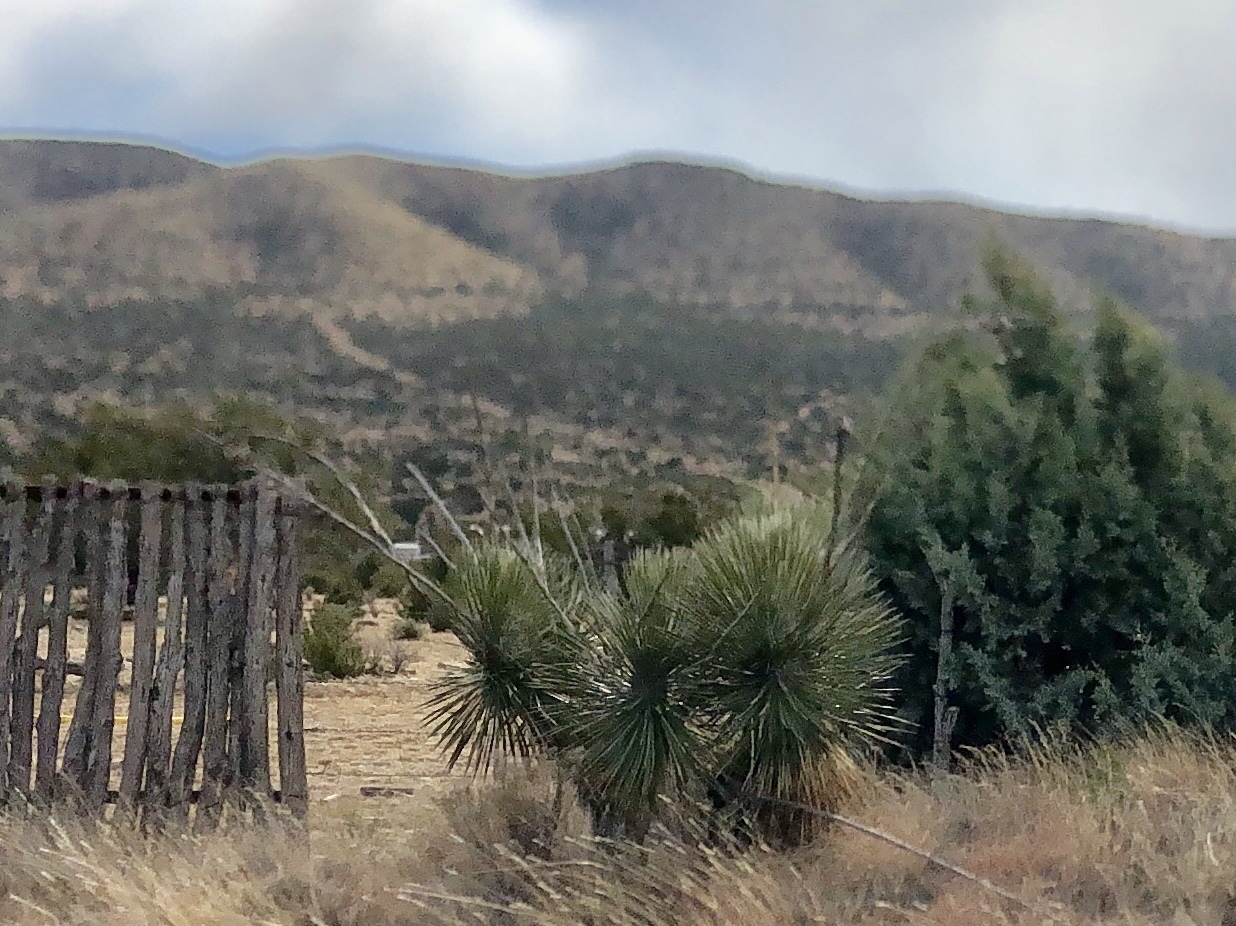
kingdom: Plantae
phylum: Tracheophyta
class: Liliopsida
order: Asparagales
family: Asparagaceae
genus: Yucca
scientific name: Yucca elata
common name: Palmella
